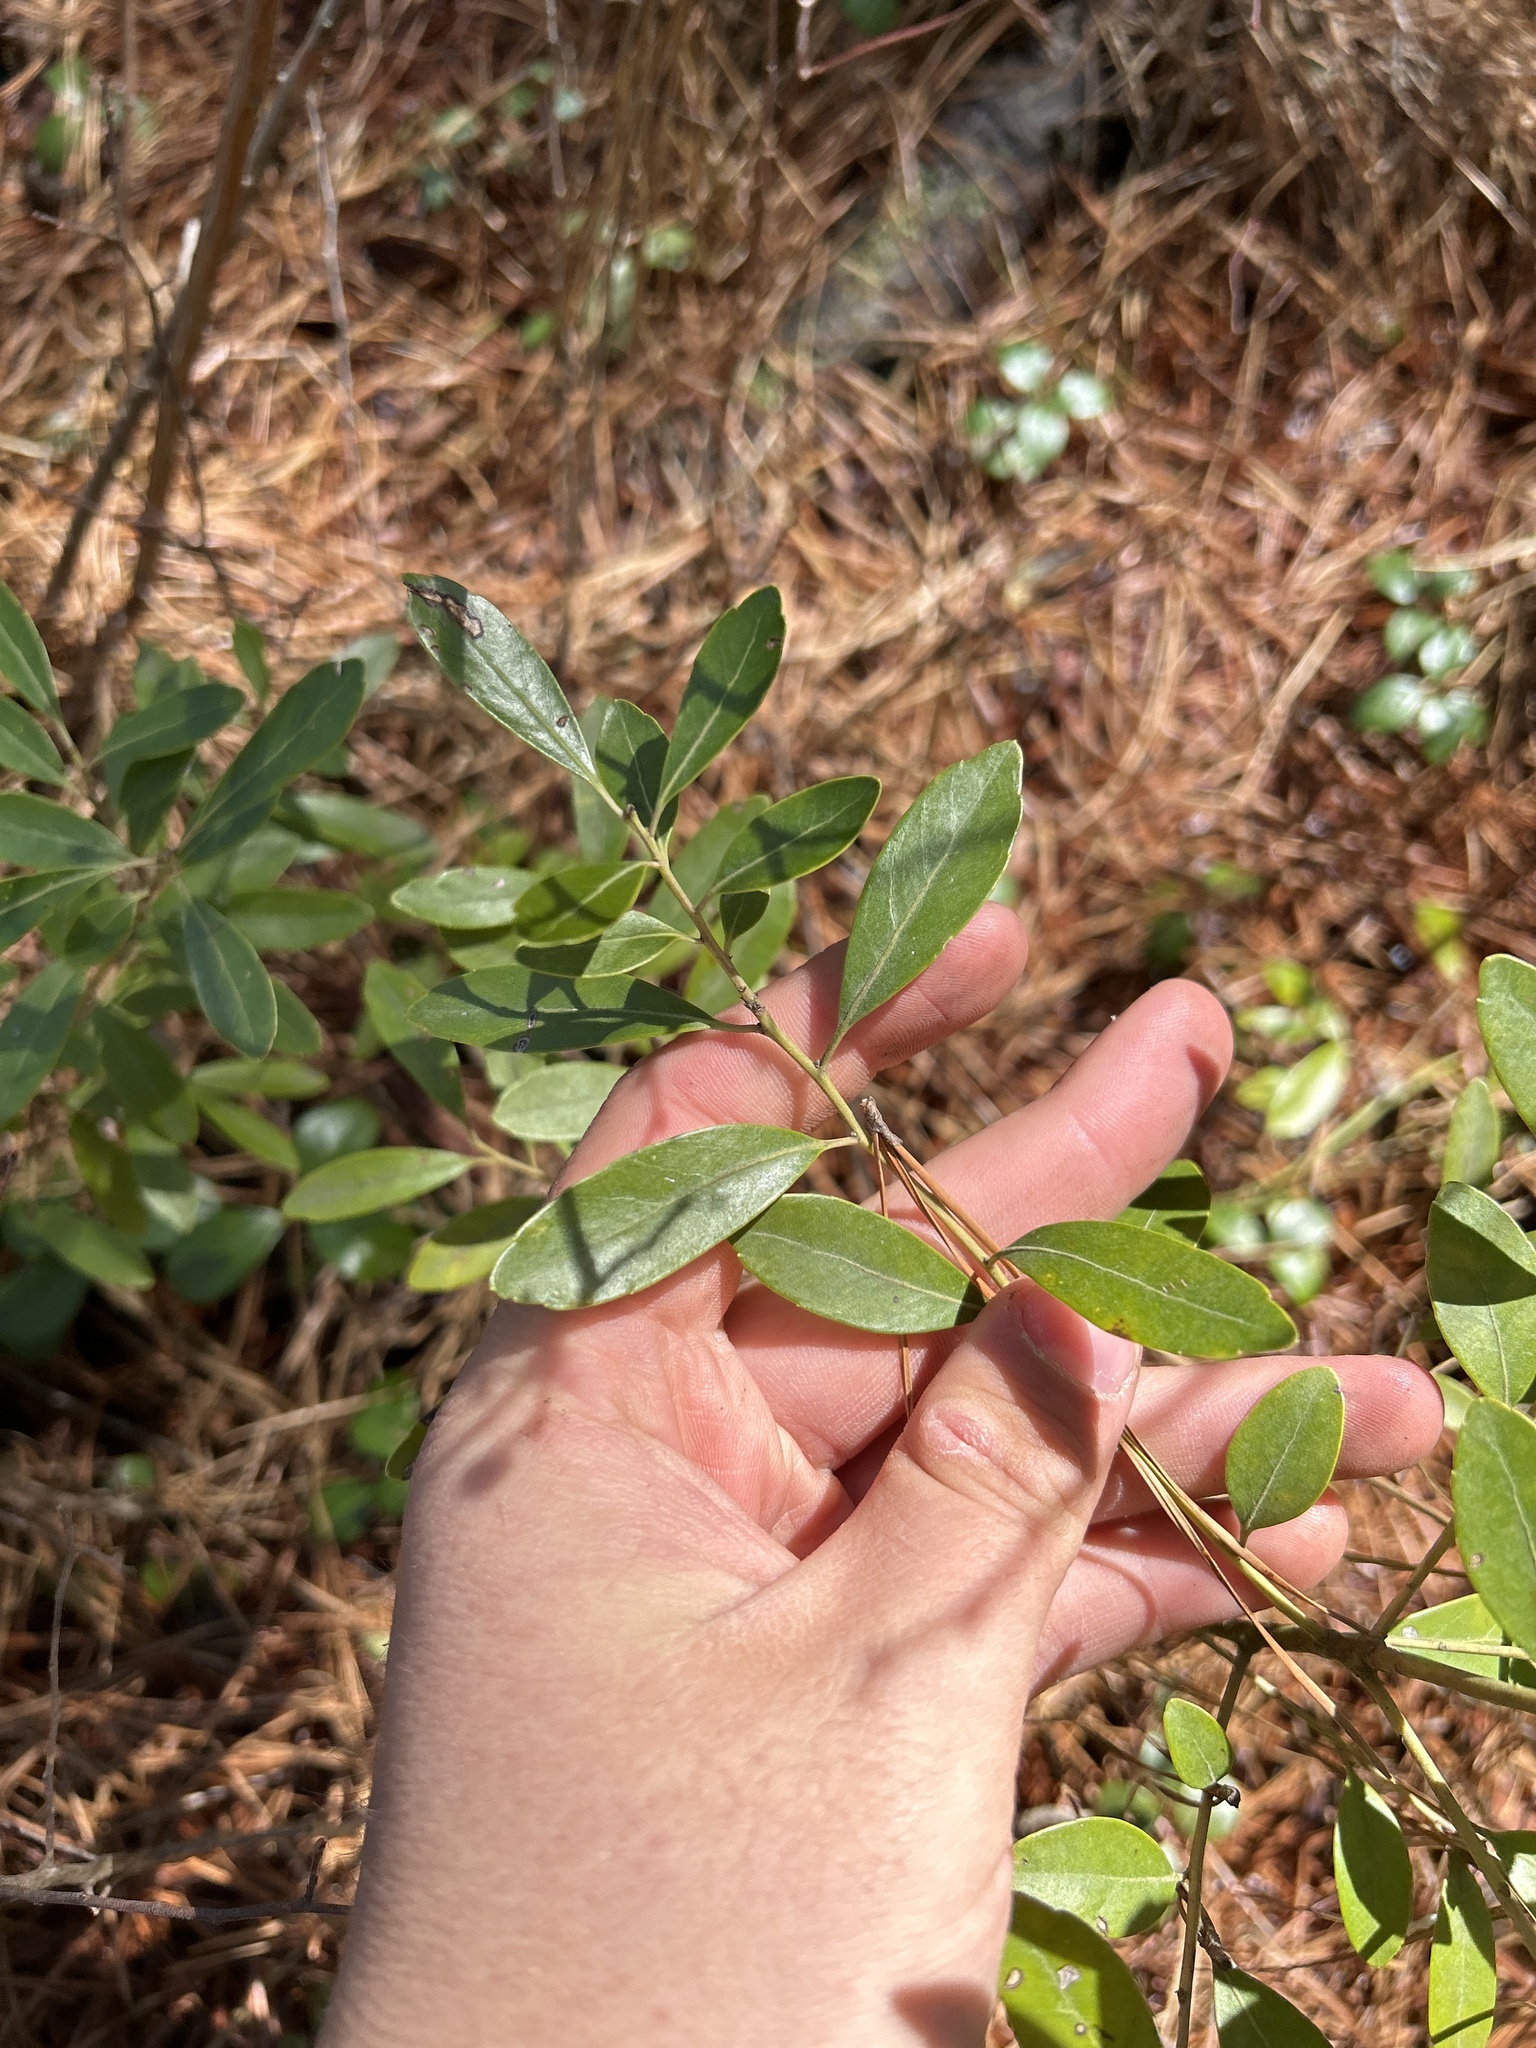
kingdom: Plantae
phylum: Tracheophyta
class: Magnoliopsida
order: Aquifoliales
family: Aquifoliaceae
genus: Ilex
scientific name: Ilex glabra
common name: Bitter gallberry
